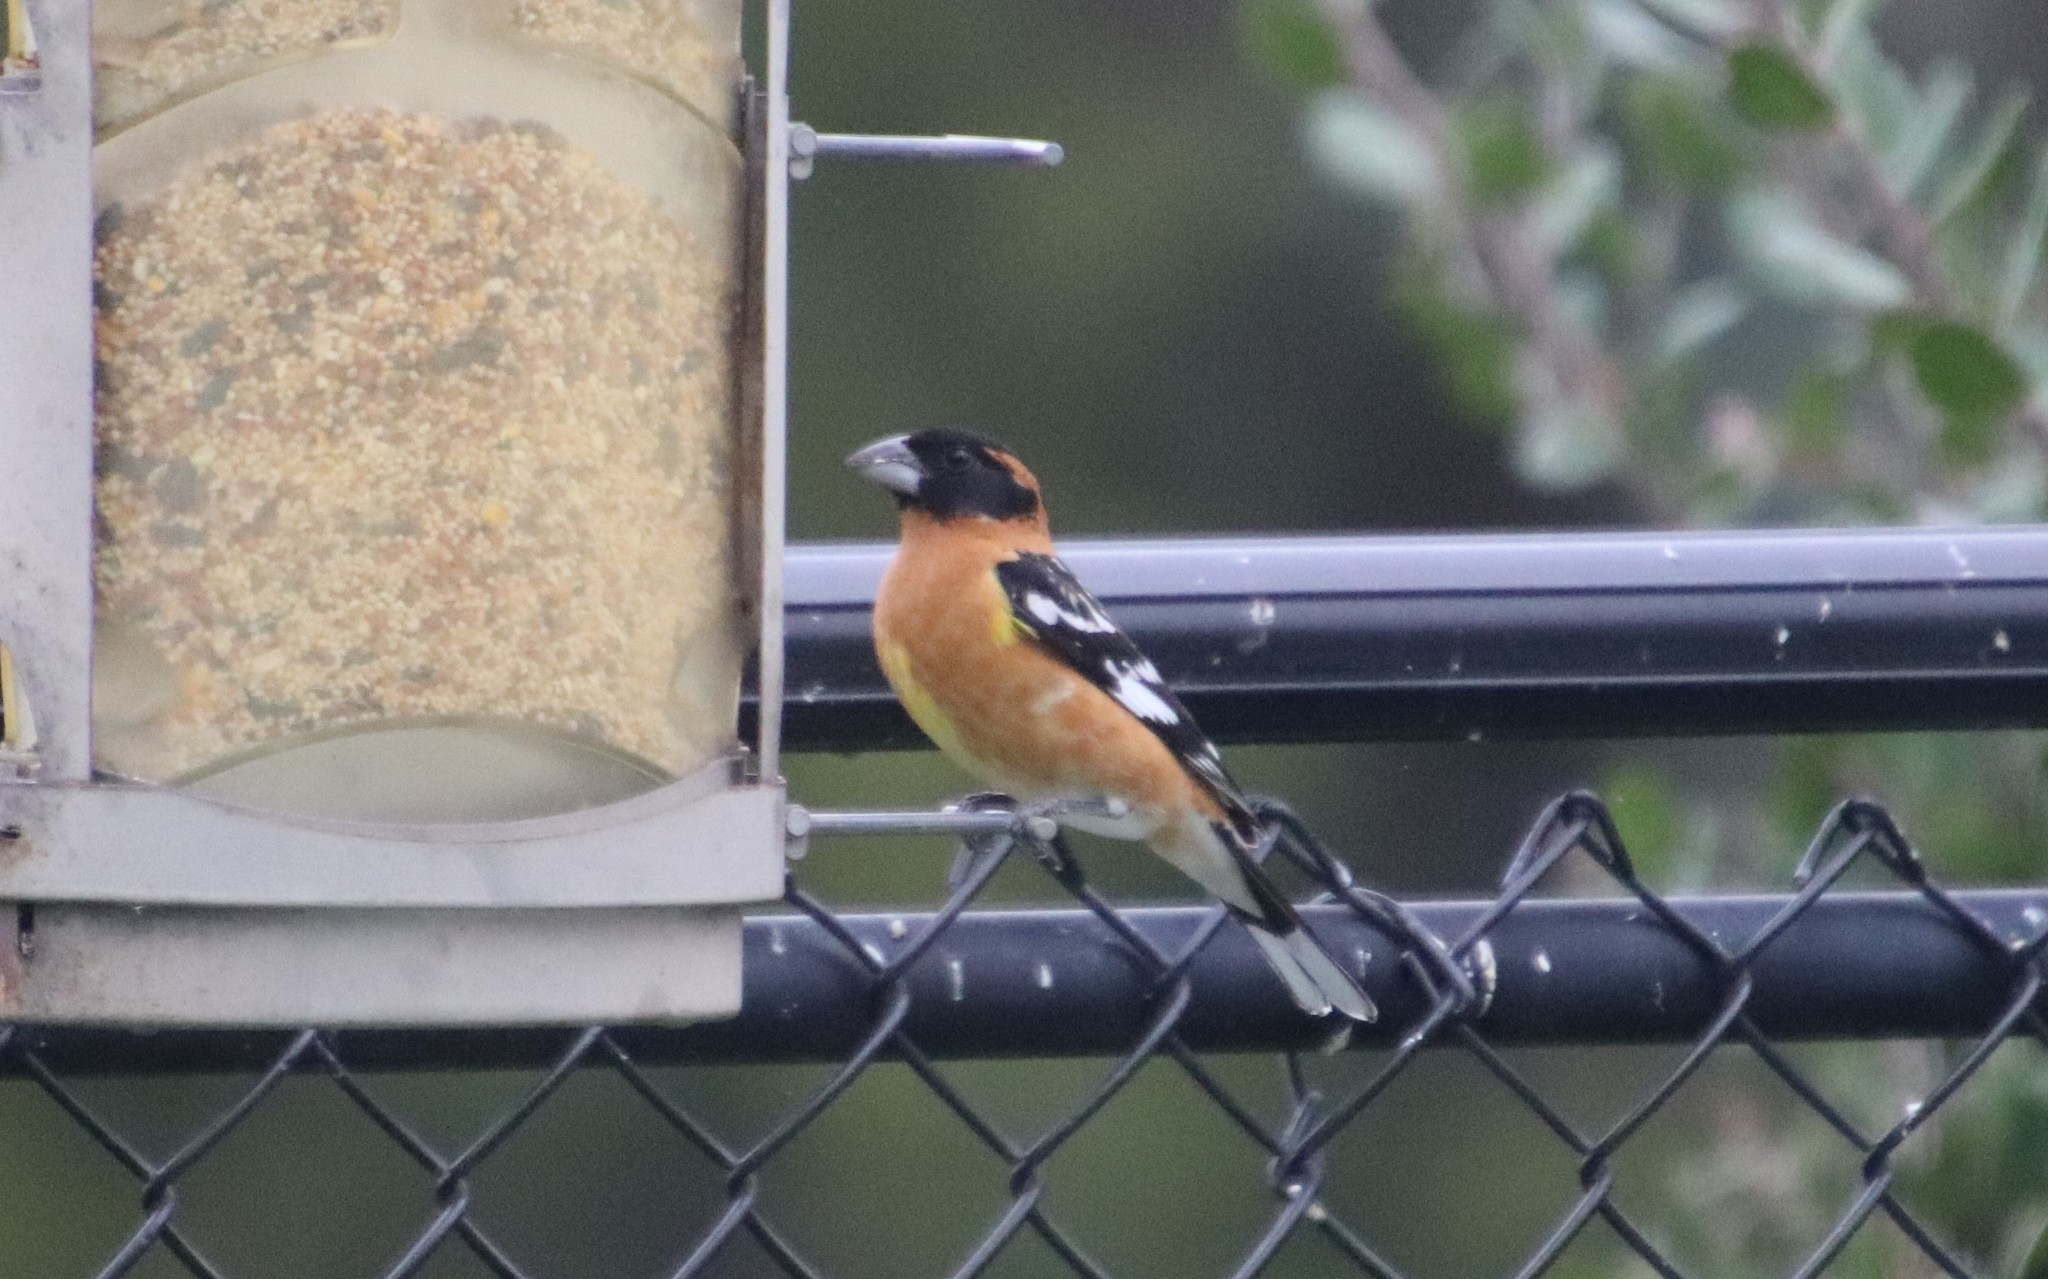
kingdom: Animalia
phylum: Chordata
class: Aves
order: Passeriformes
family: Cardinalidae
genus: Pheucticus
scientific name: Pheucticus melanocephalus
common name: Black-headed grosbeak
